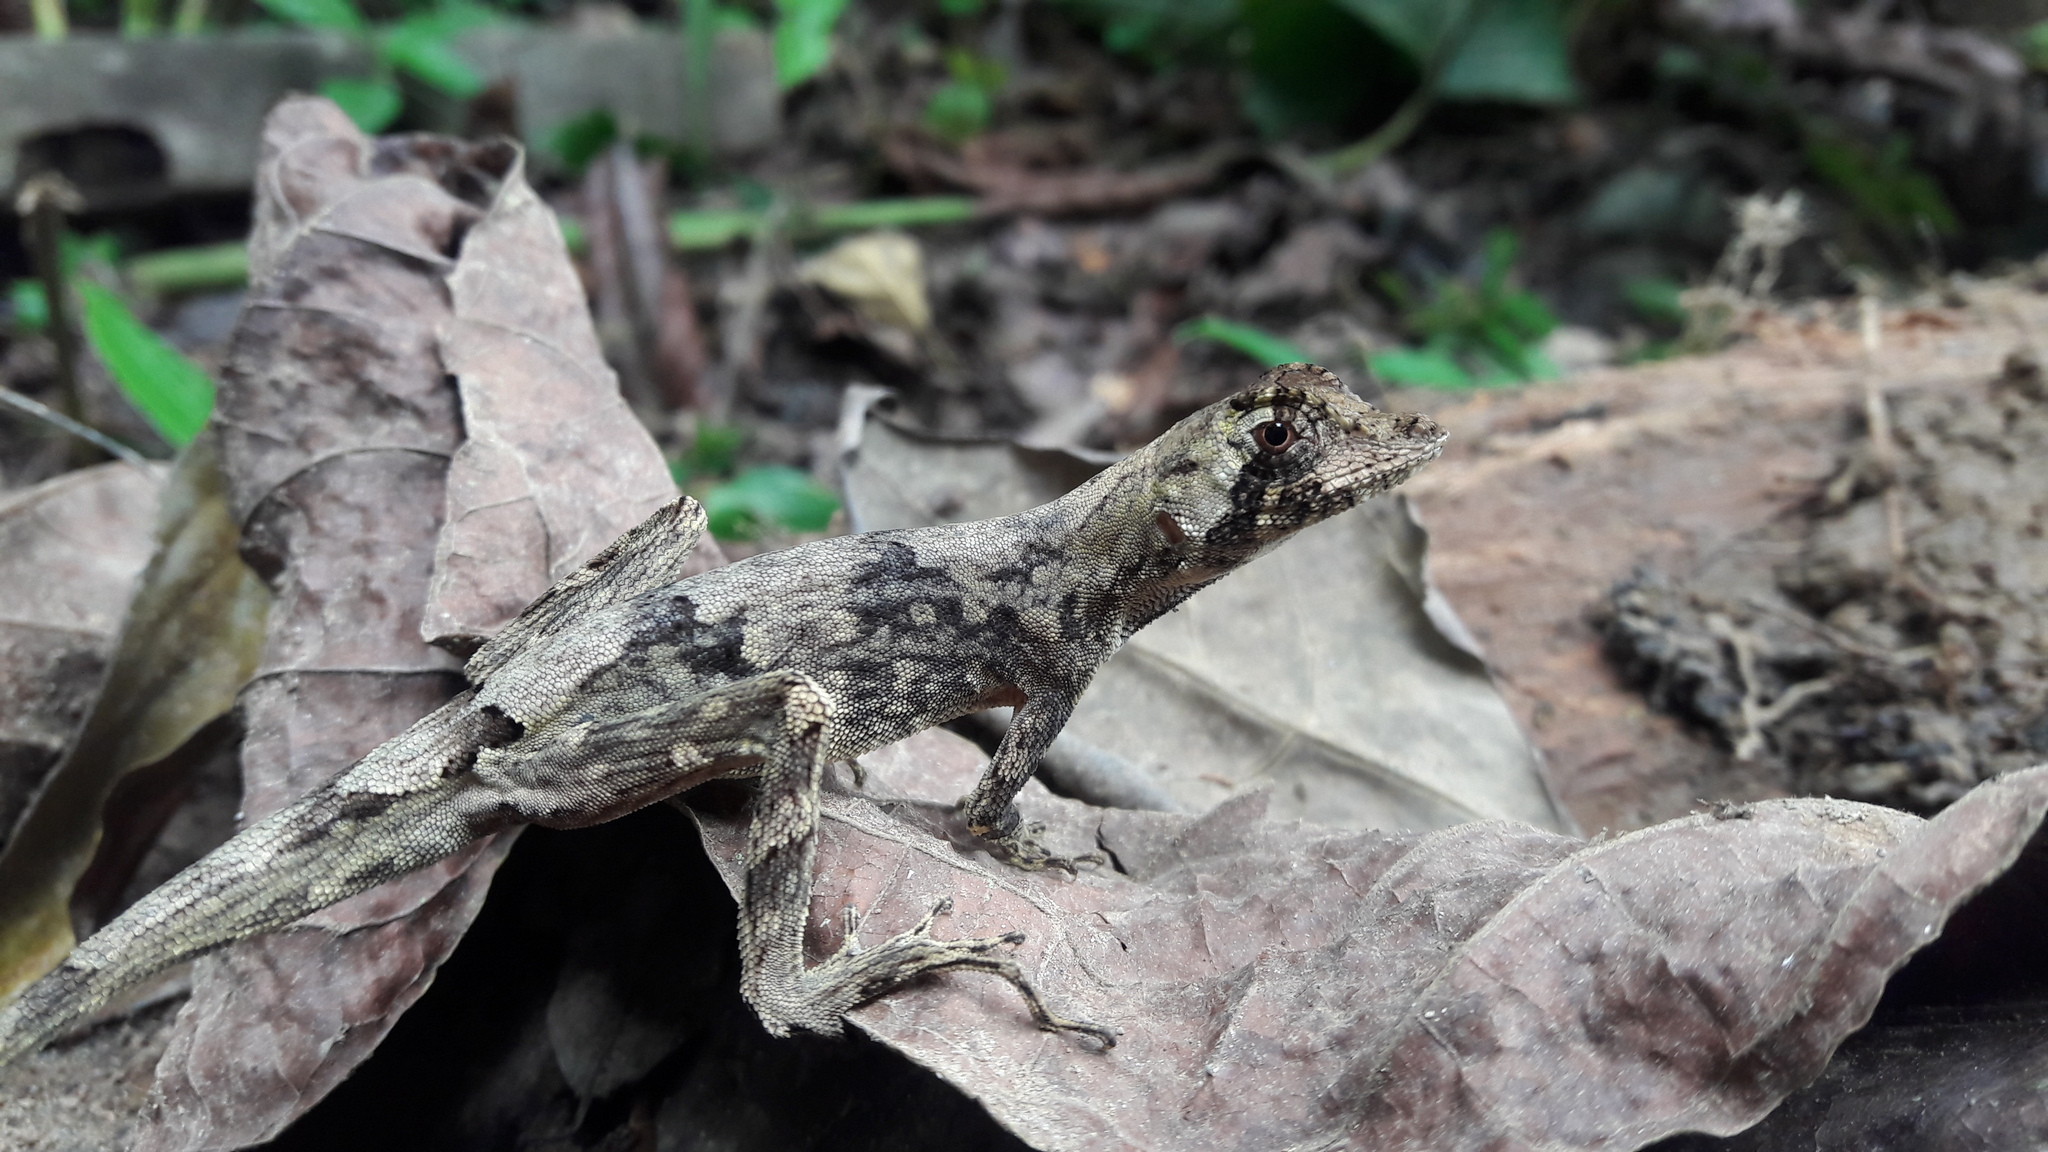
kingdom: Animalia
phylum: Chordata
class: Squamata
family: Dactyloidae
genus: Anolis
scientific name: Anolis capito
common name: Bighead anole
